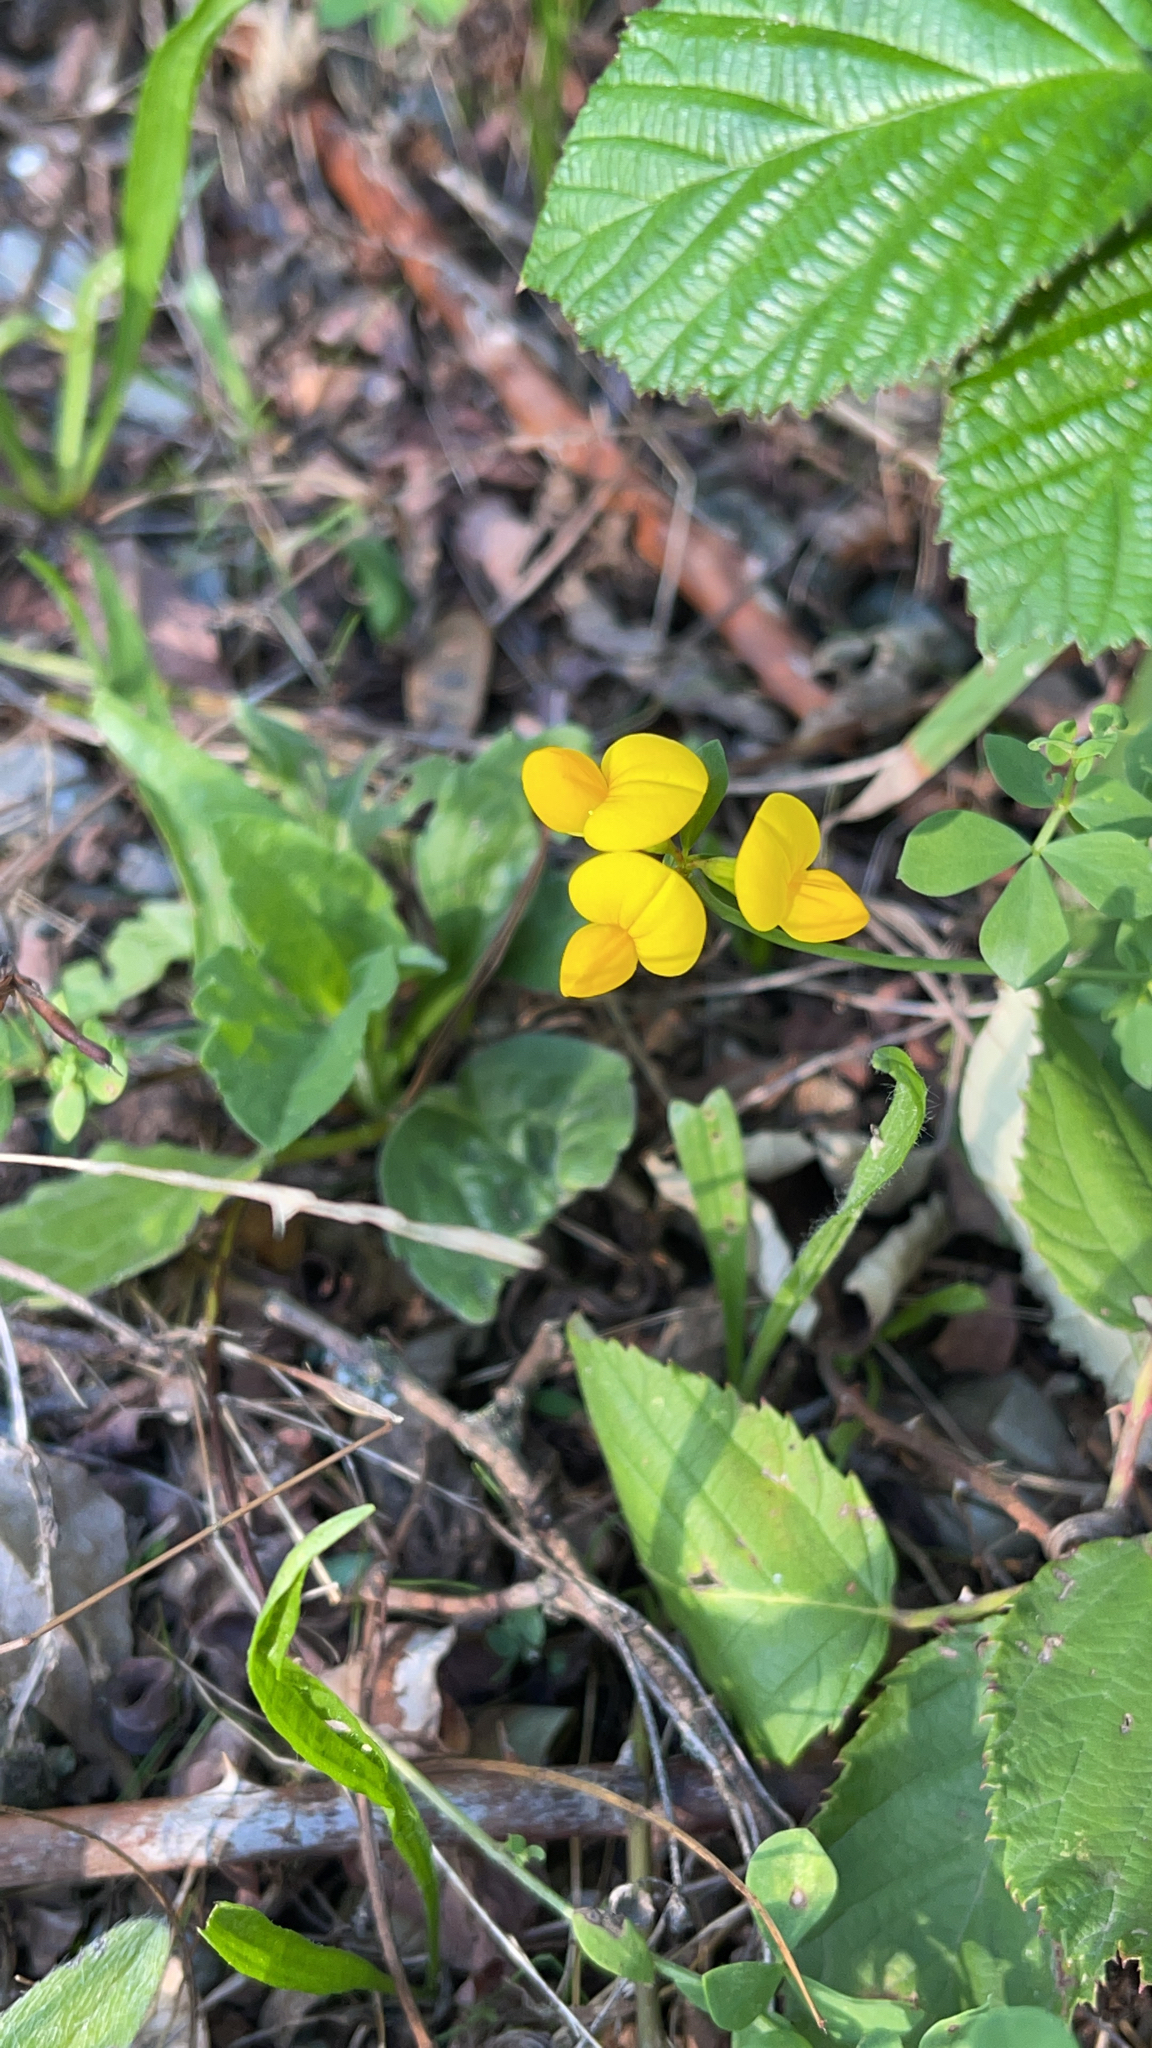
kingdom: Plantae
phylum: Tracheophyta
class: Magnoliopsida
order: Fabales
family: Fabaceae
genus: Lotus
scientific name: Lotus corniculatus
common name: Common bird's-foot-trefoil
